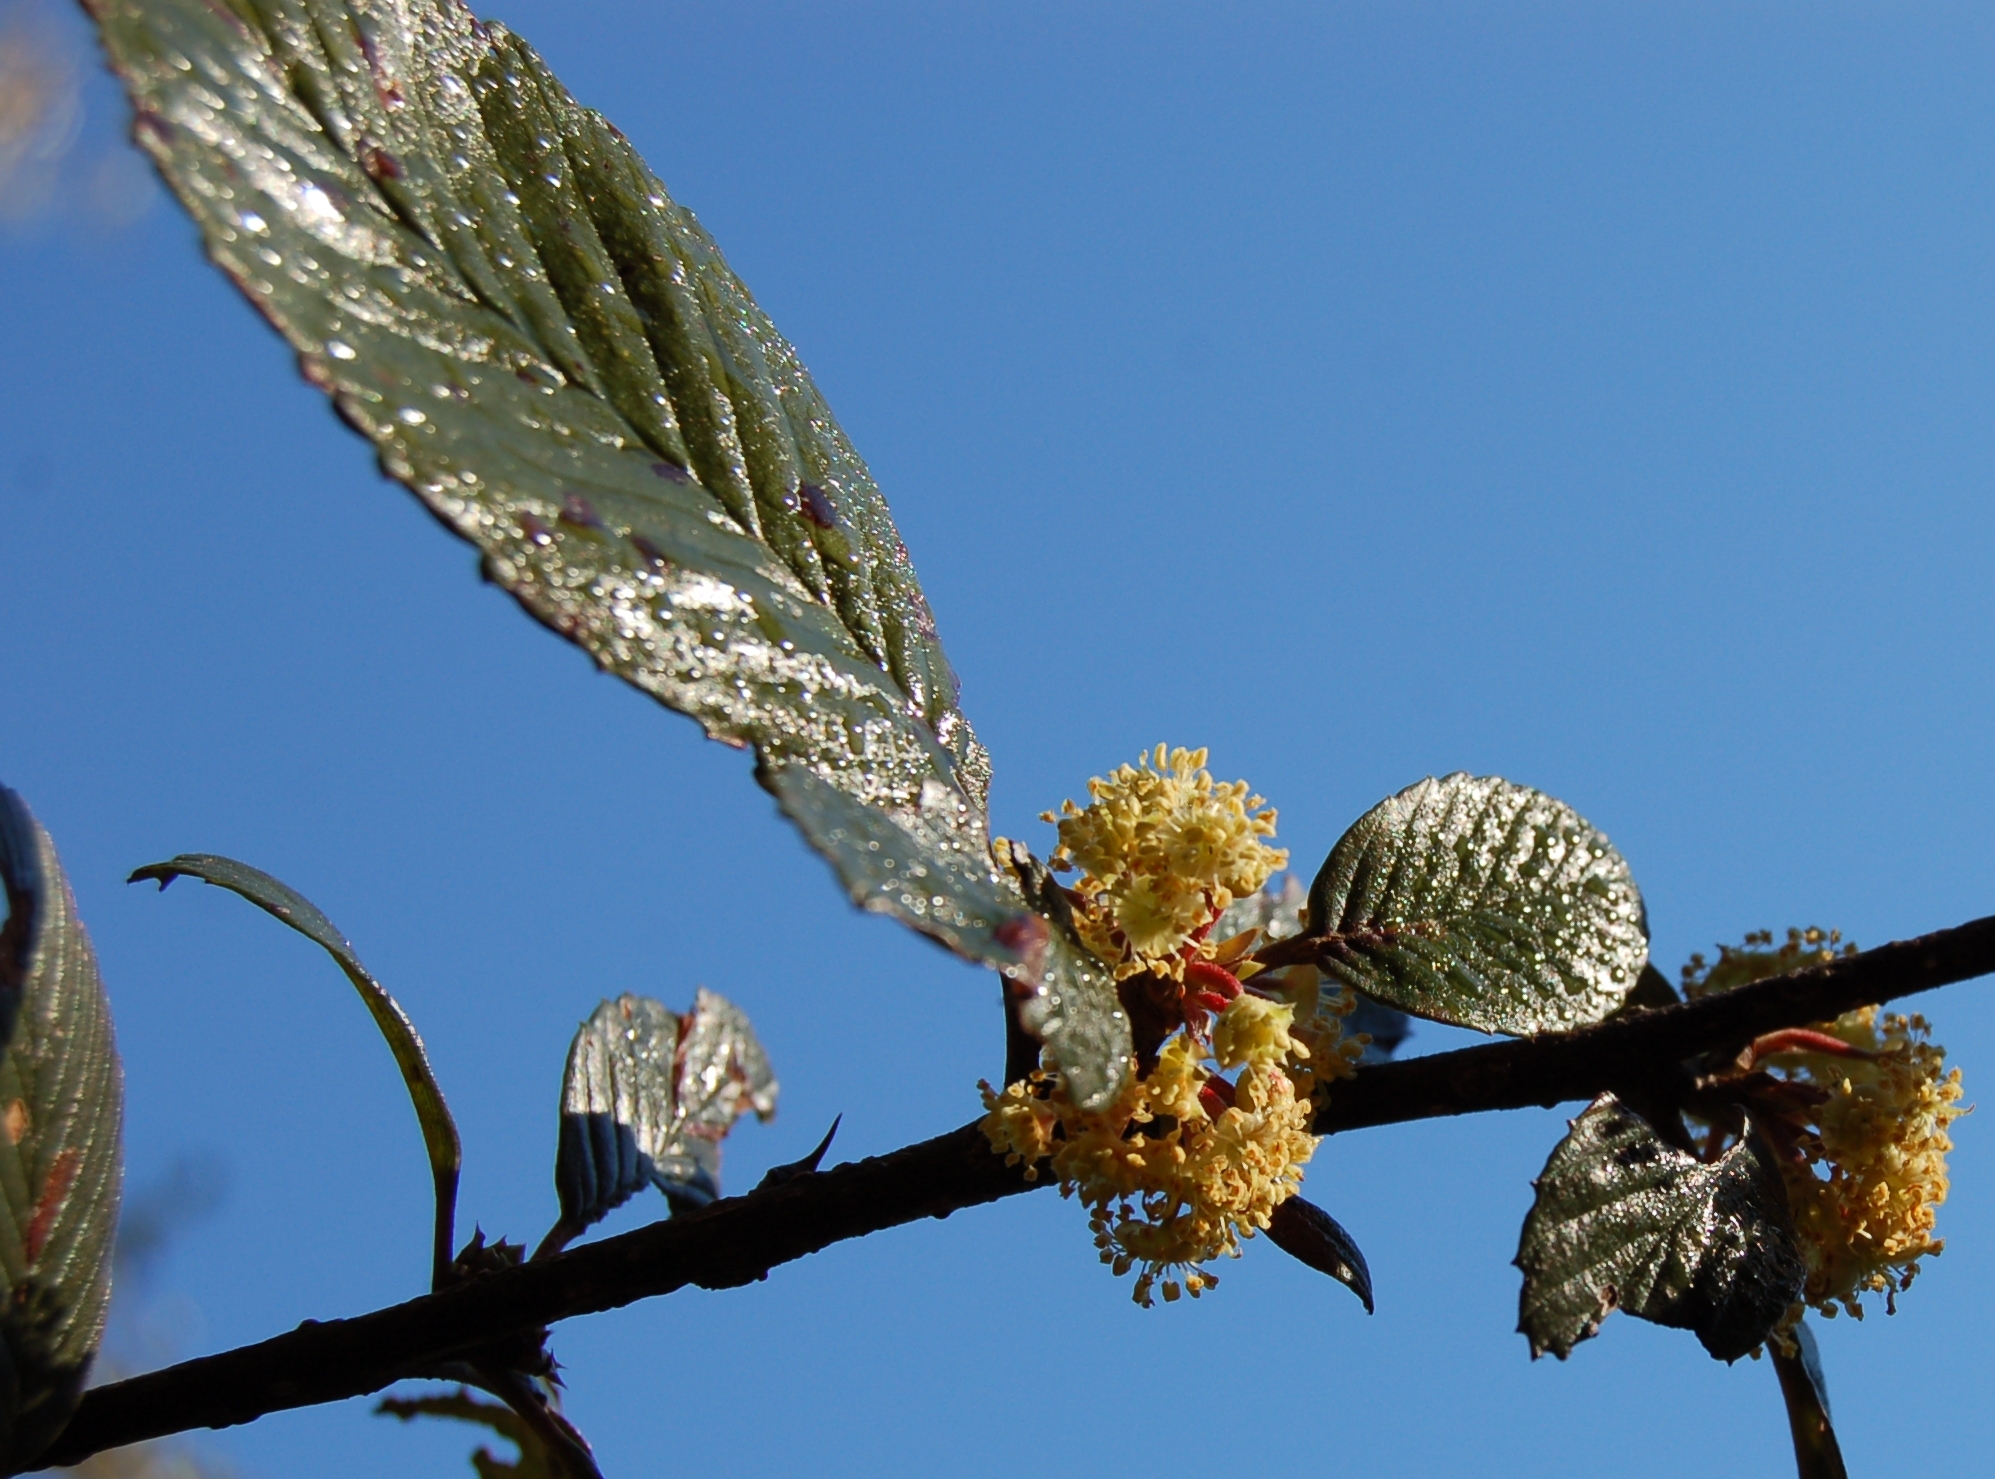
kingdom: Plantae
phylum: Tracheophyta
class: Magnoliopsida
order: Rosales
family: Rosaceae
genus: Cercocarpus
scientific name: Cercocarpus macrophyllus
